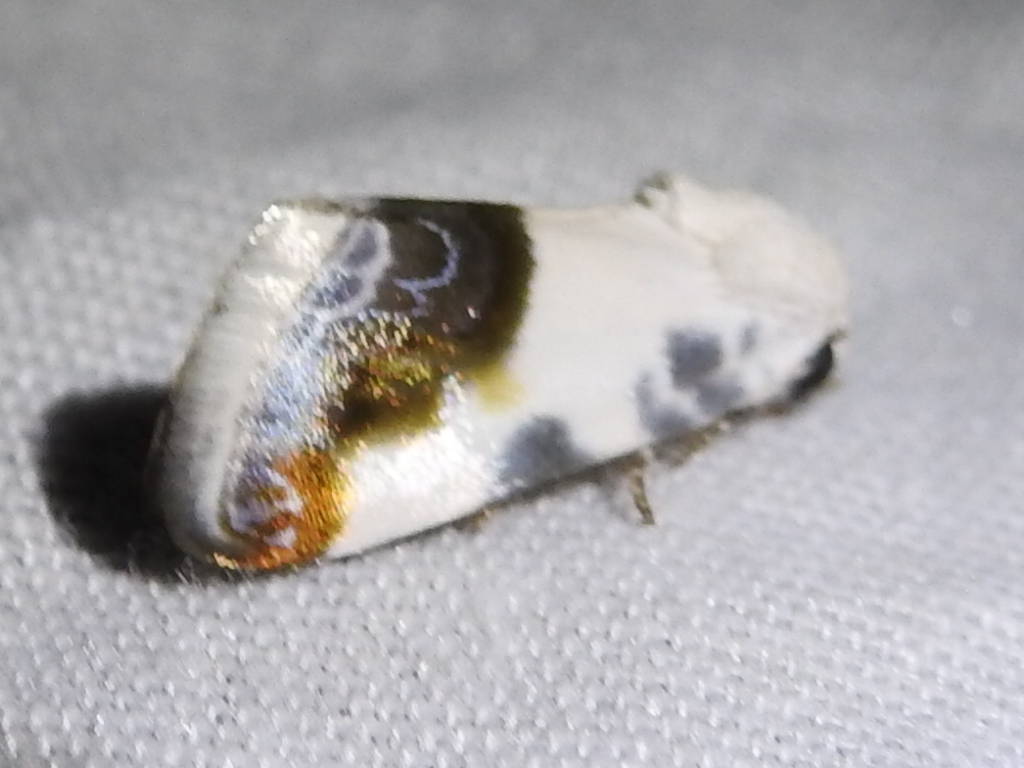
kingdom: Animalia
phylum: Arthropoda
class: Insecta
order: Lepidoptera
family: Noctuidae
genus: Acontia
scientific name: Acontia cretata
